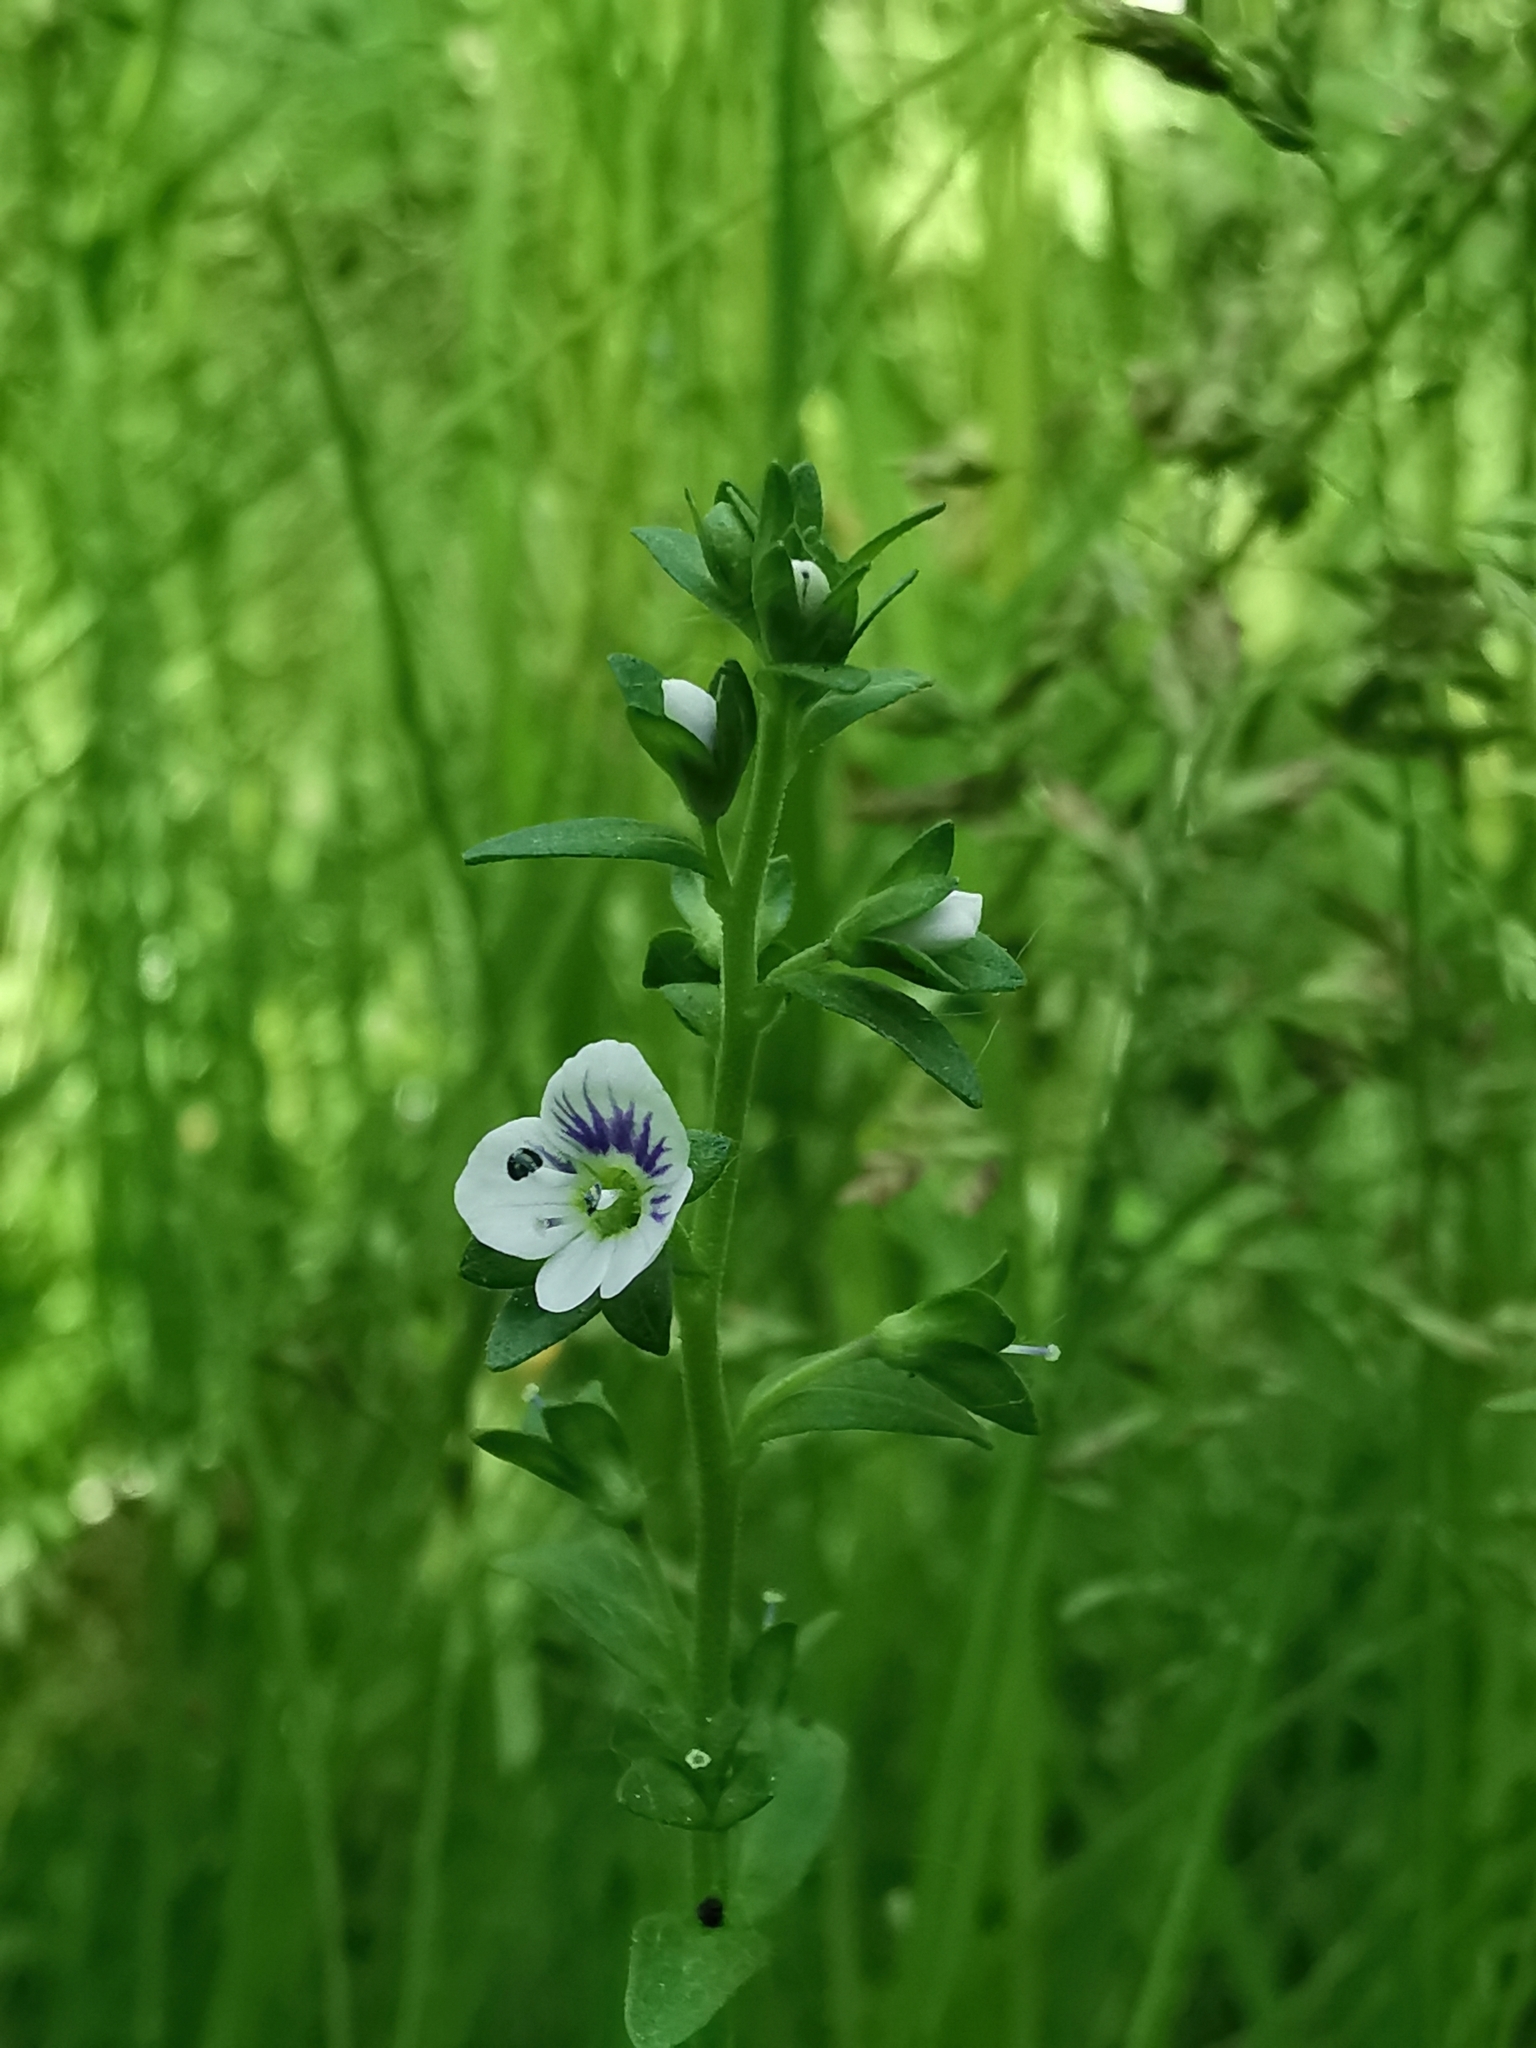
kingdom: Plantae
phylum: Tracheophyta
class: Magnoliopsida
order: Lamiales
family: Plantaginaceae
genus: Veronica
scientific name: Veronica serpyllifolia
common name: Thyme-leaved speedwell
